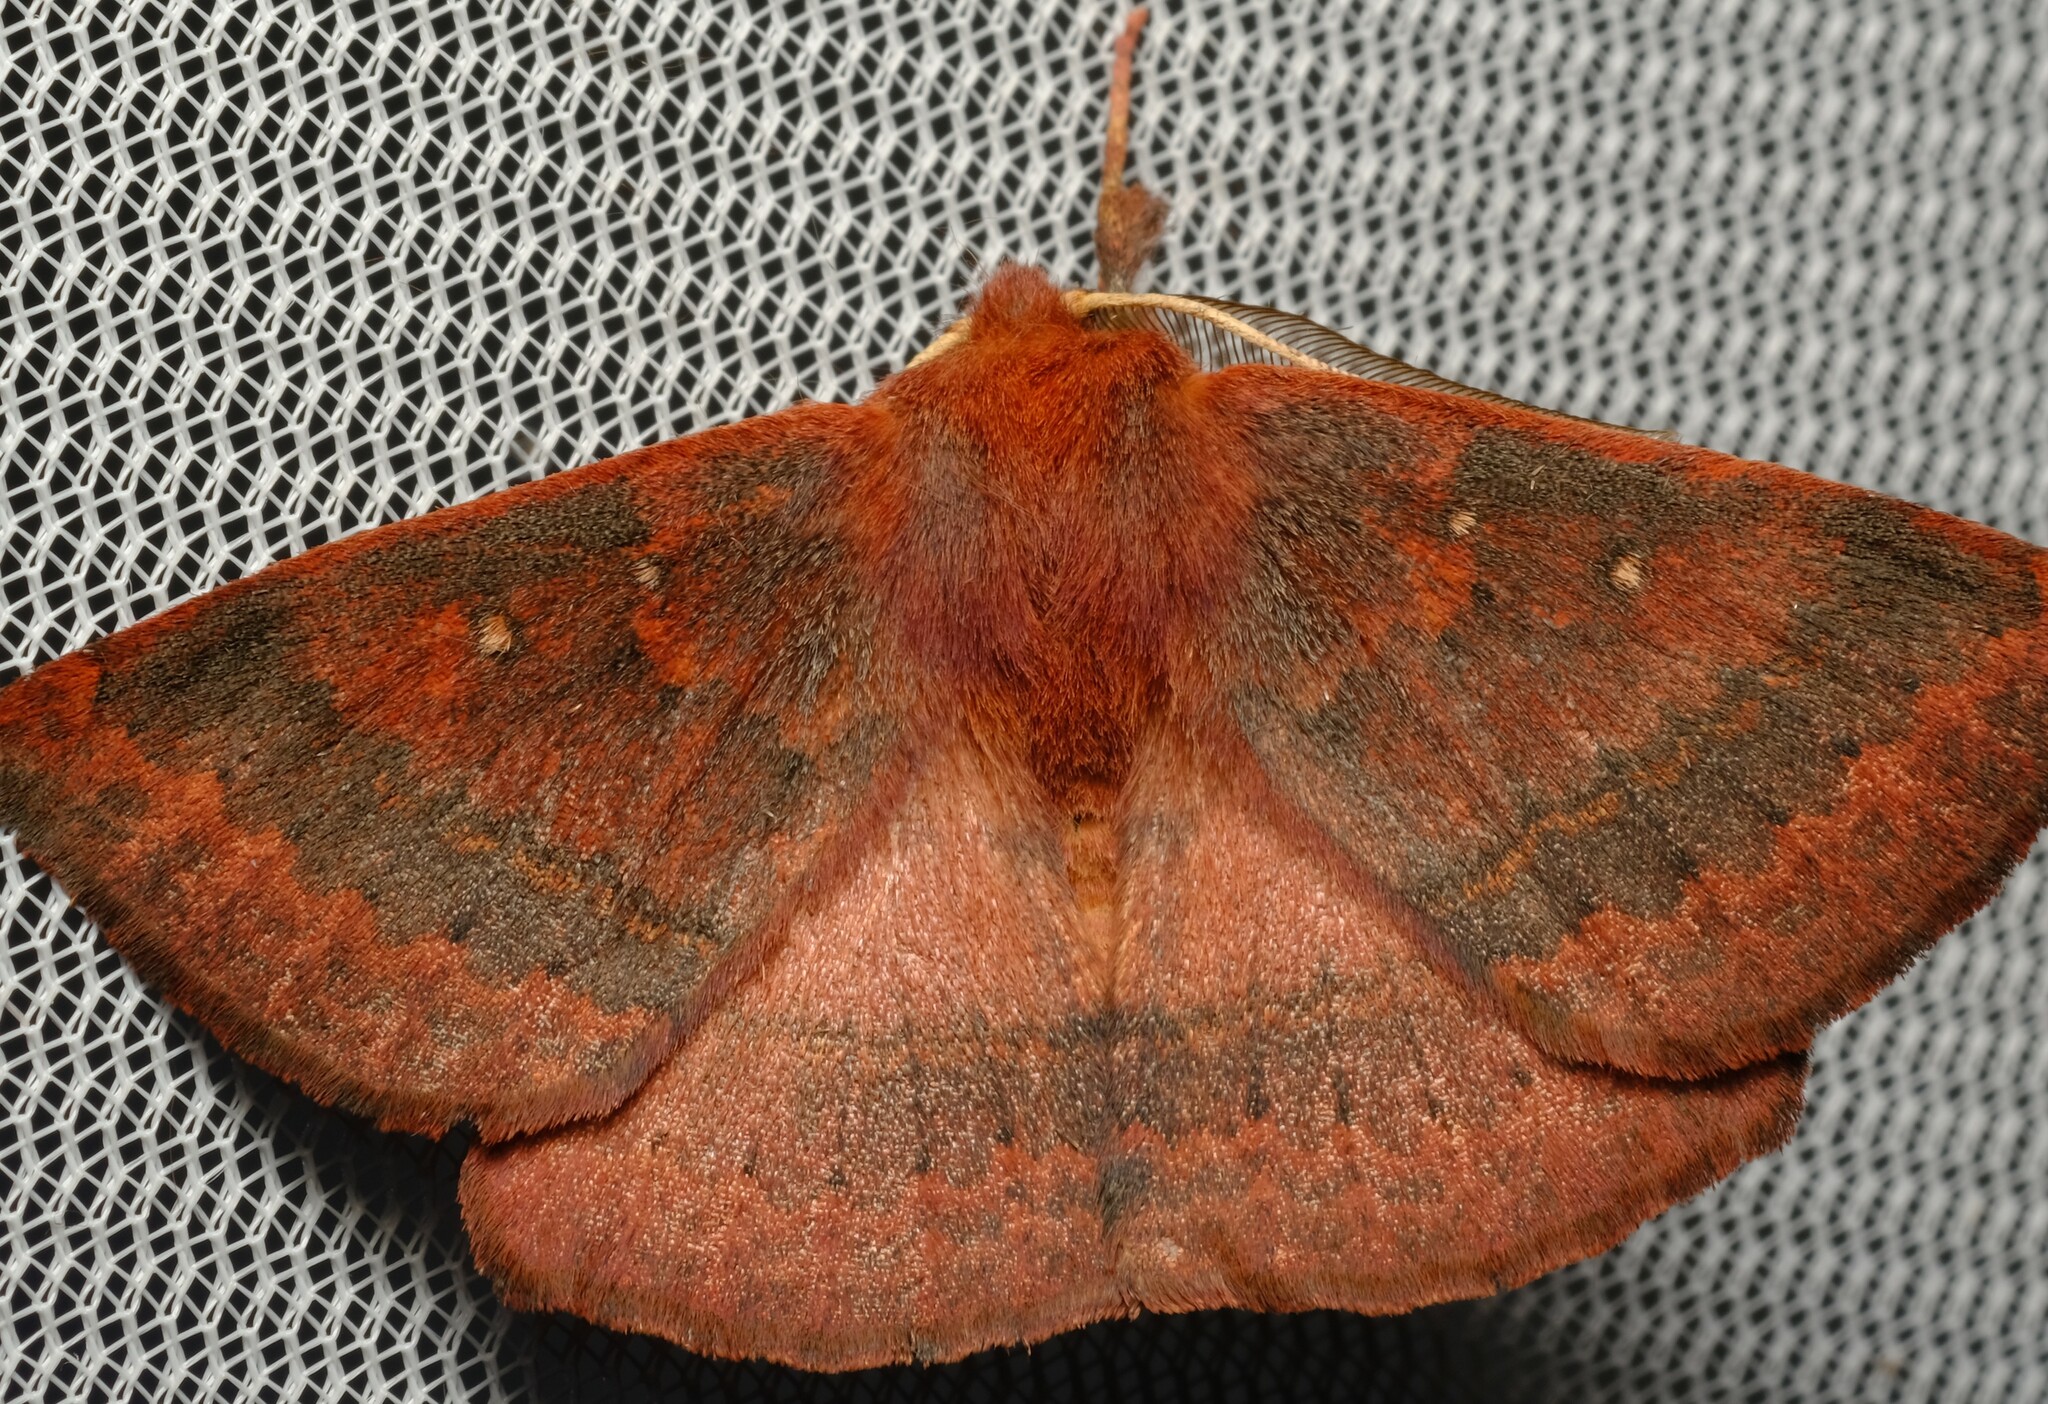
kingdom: Animalia
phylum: Arthropoda
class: Insecta
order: Lepidoptera
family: Anthelidae
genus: Anthela
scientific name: Anthela repleta
